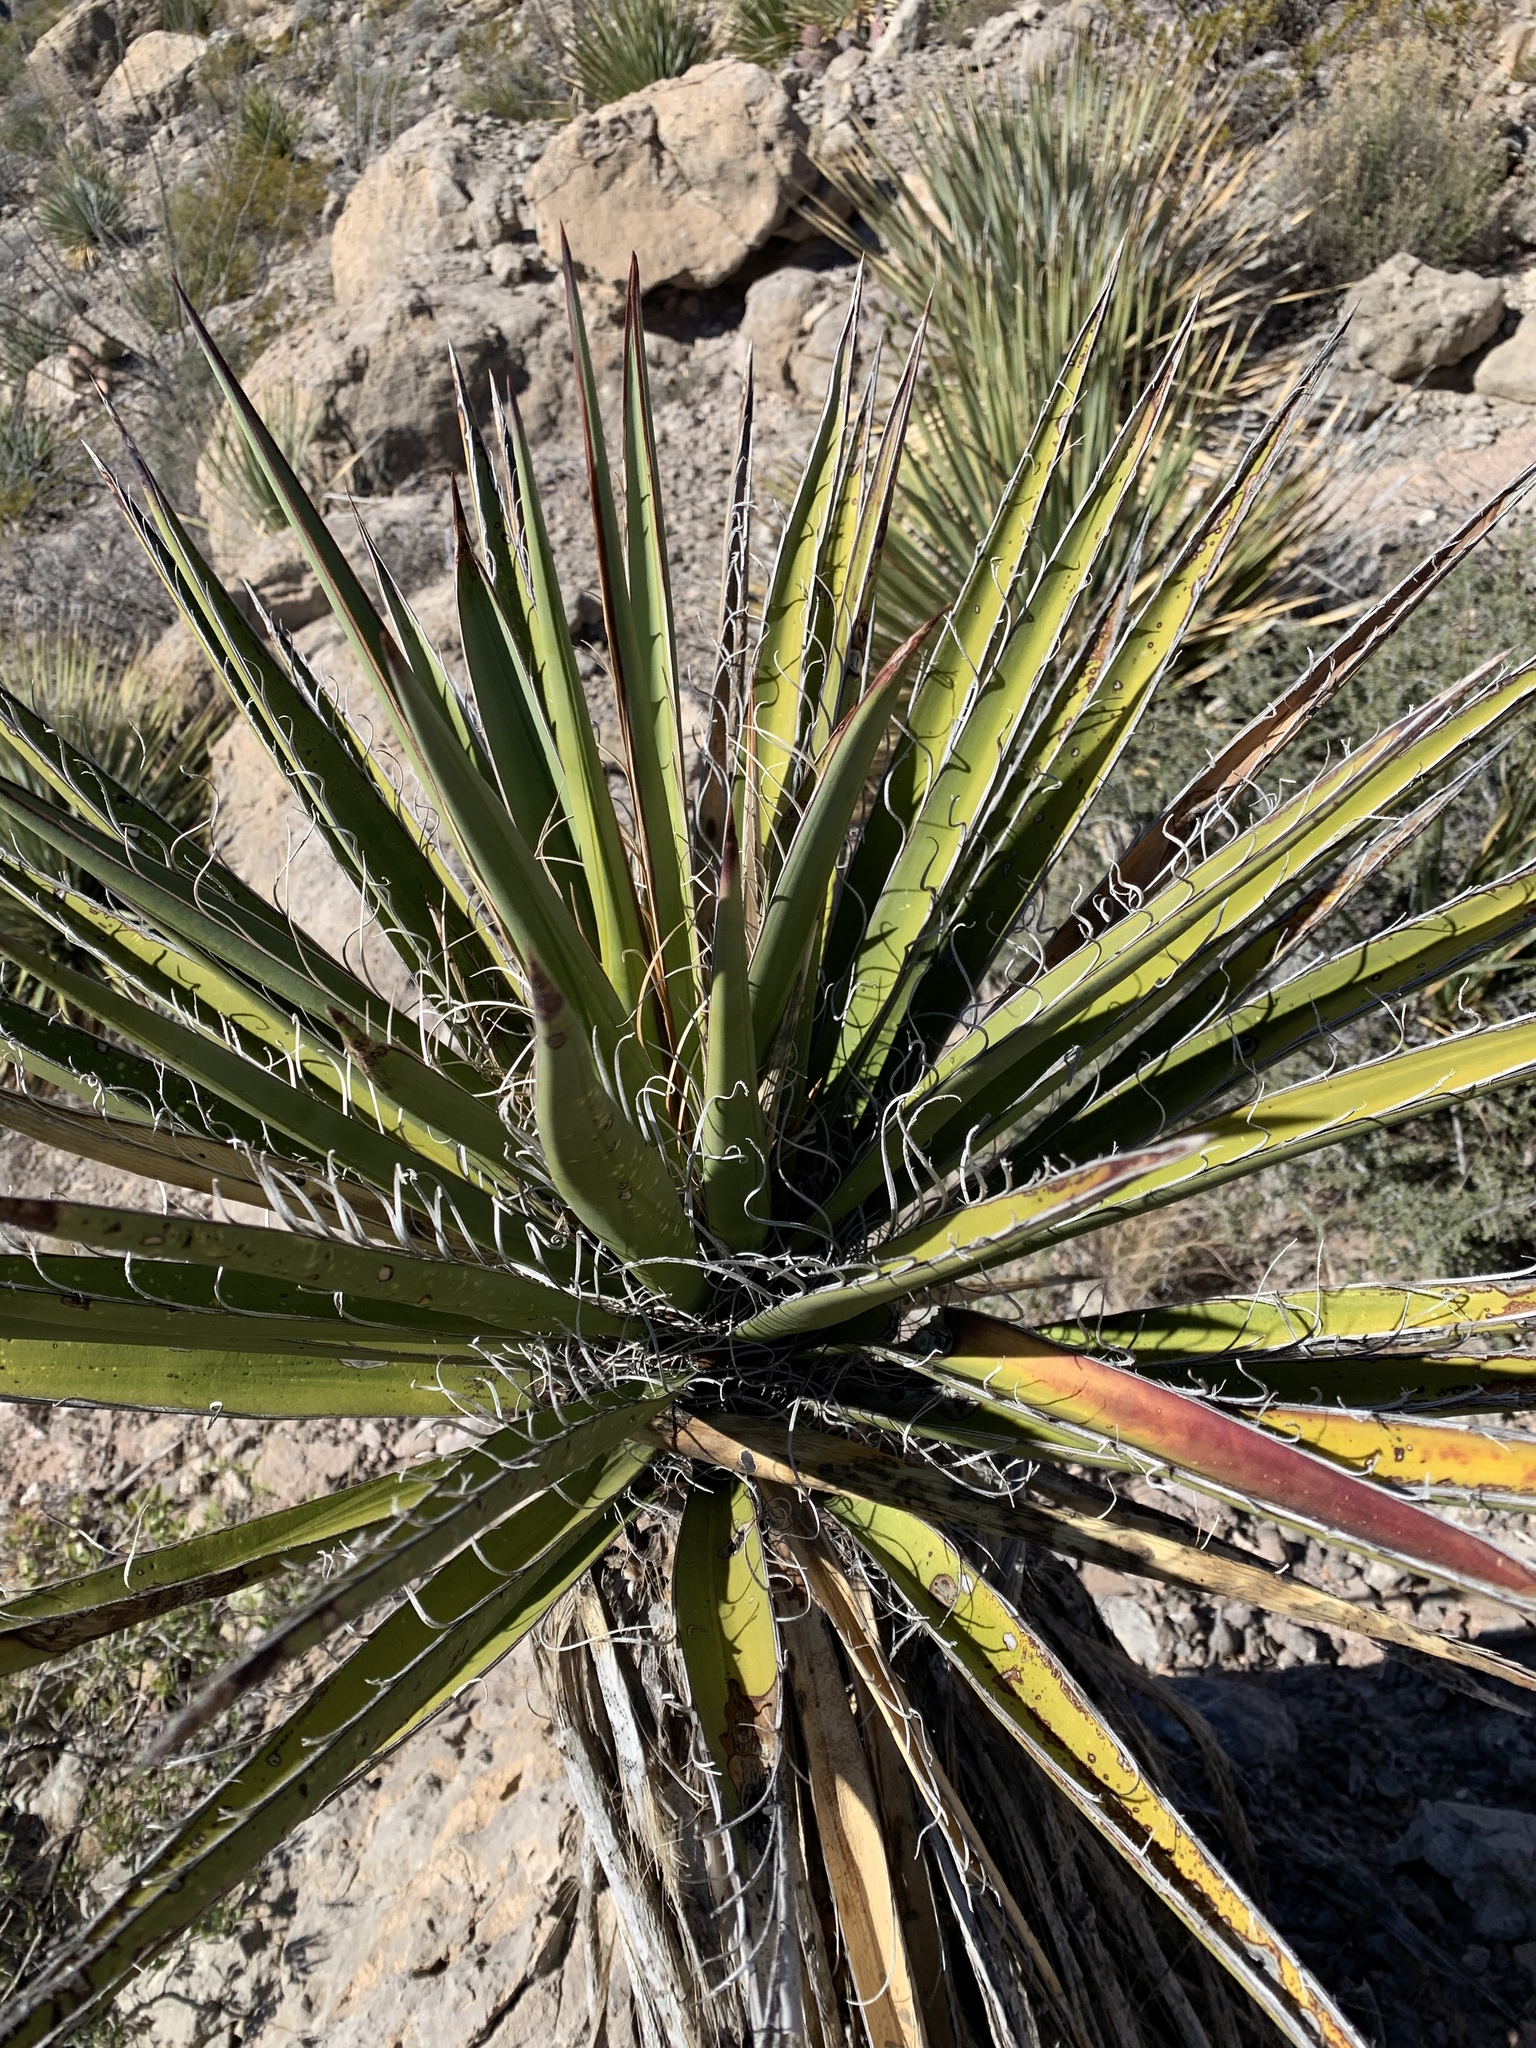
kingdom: Plantae
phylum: Tracheophyta
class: Liliopsida
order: Asparagales
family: Asparagaceae
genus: Yucca
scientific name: Yucca treculiana
